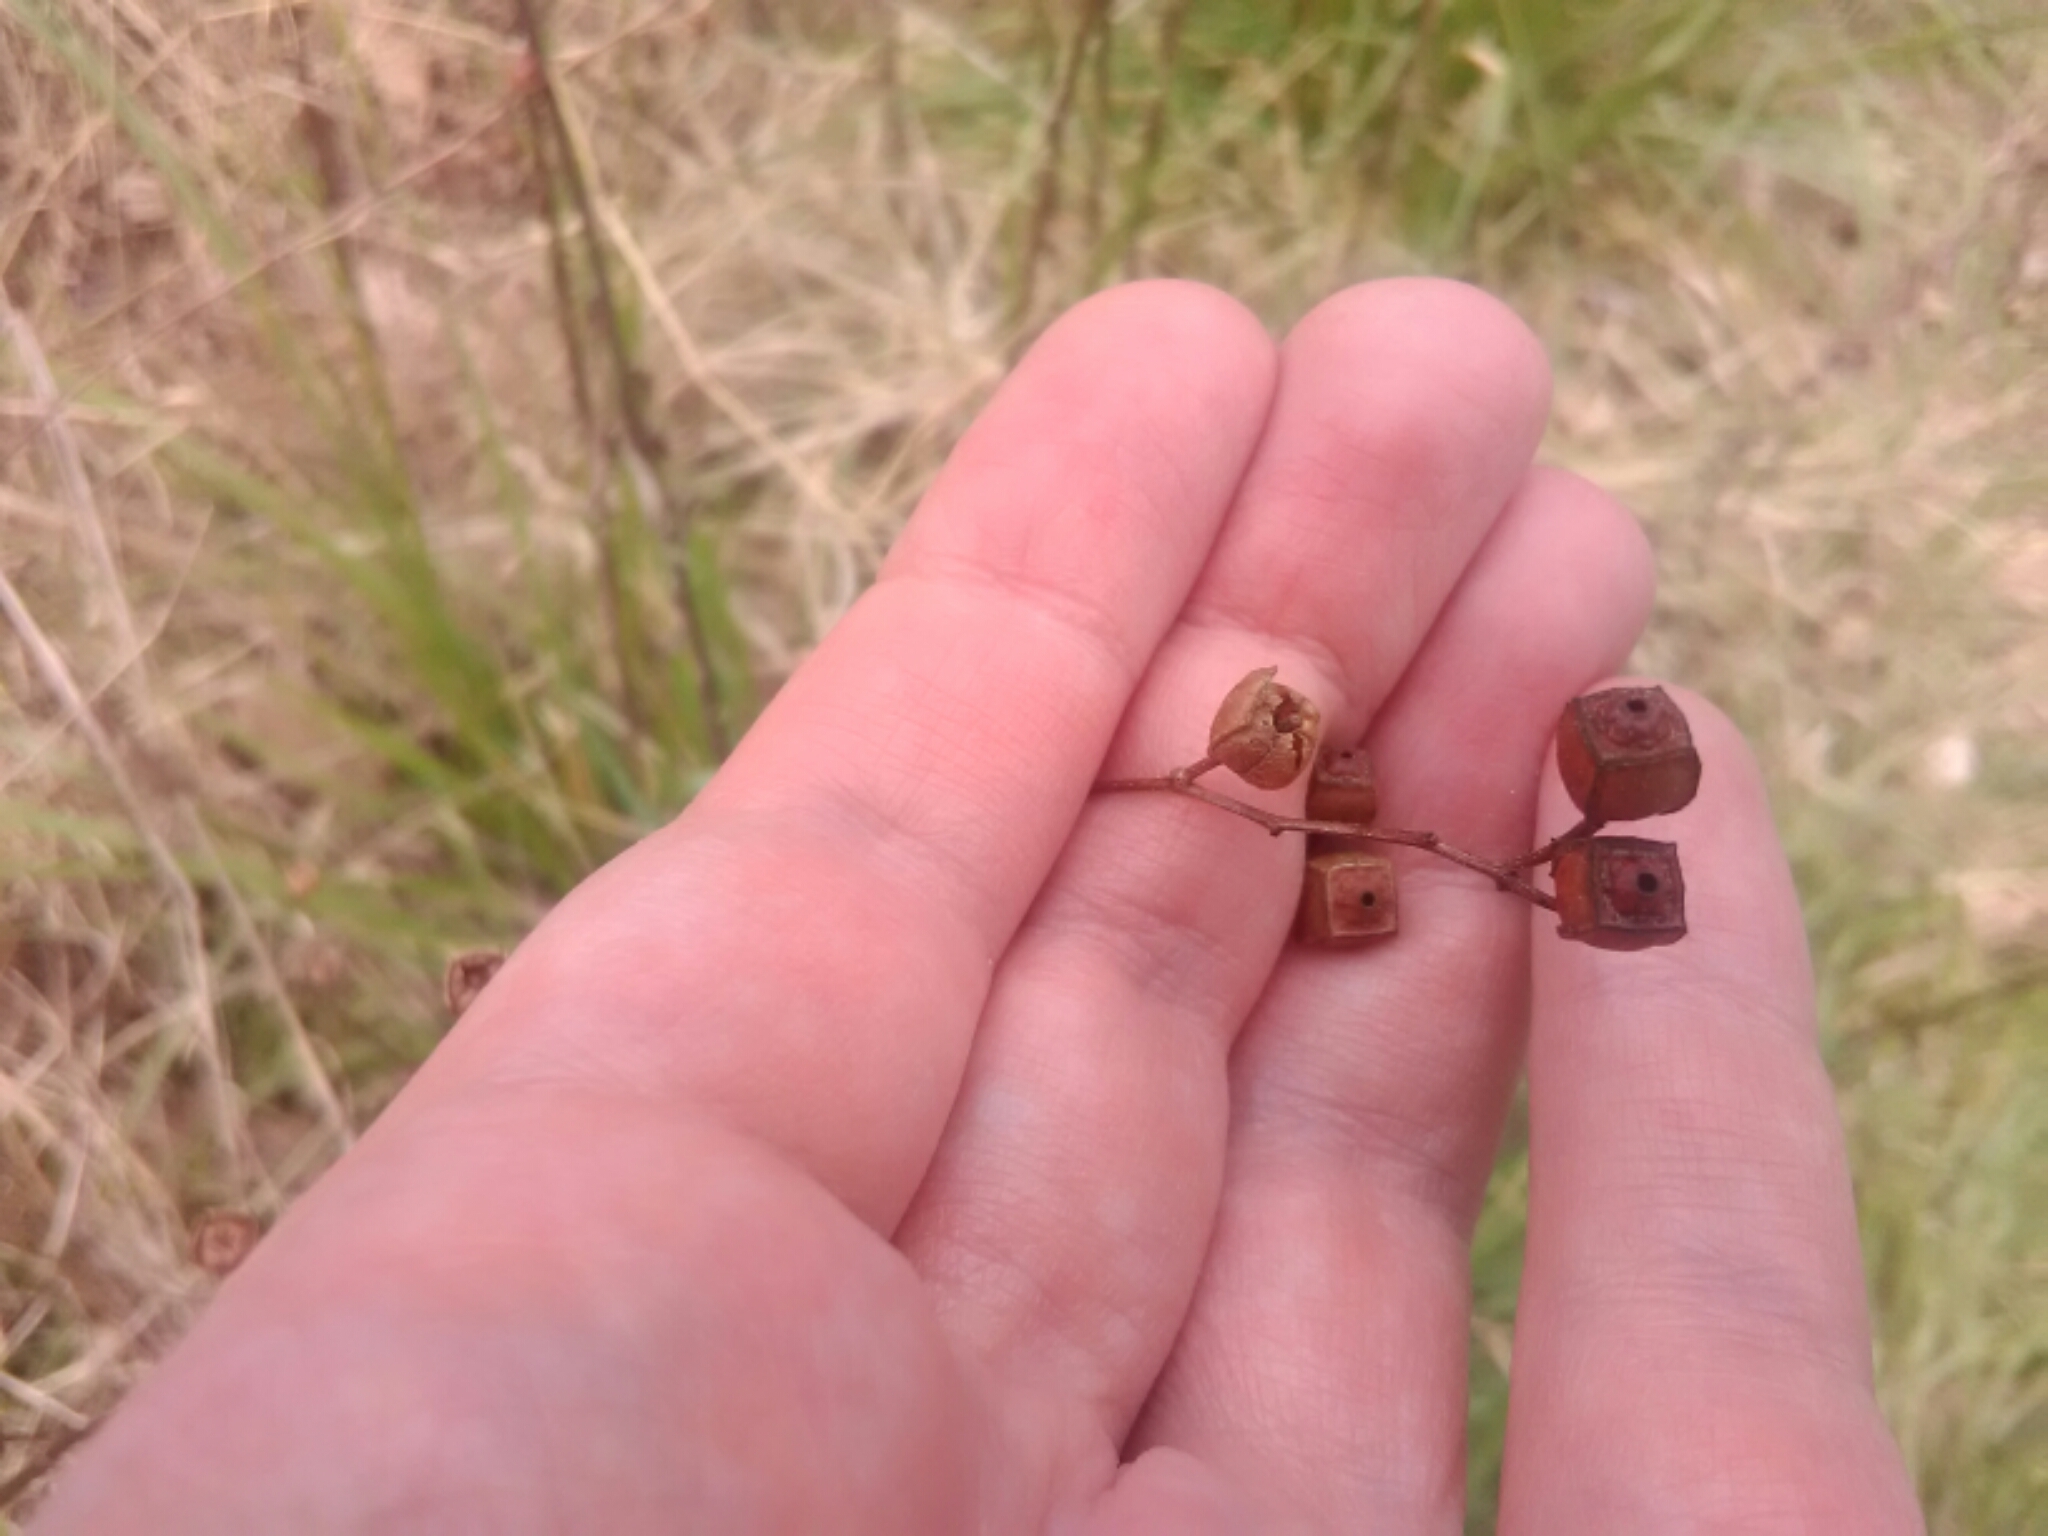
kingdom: Plantae
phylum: Tracheophyta
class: Magnoliopsida
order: Myrtales
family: Onagraceae
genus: Ludwigia
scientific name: Ludwigia alternifolia
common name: Rattlebox
